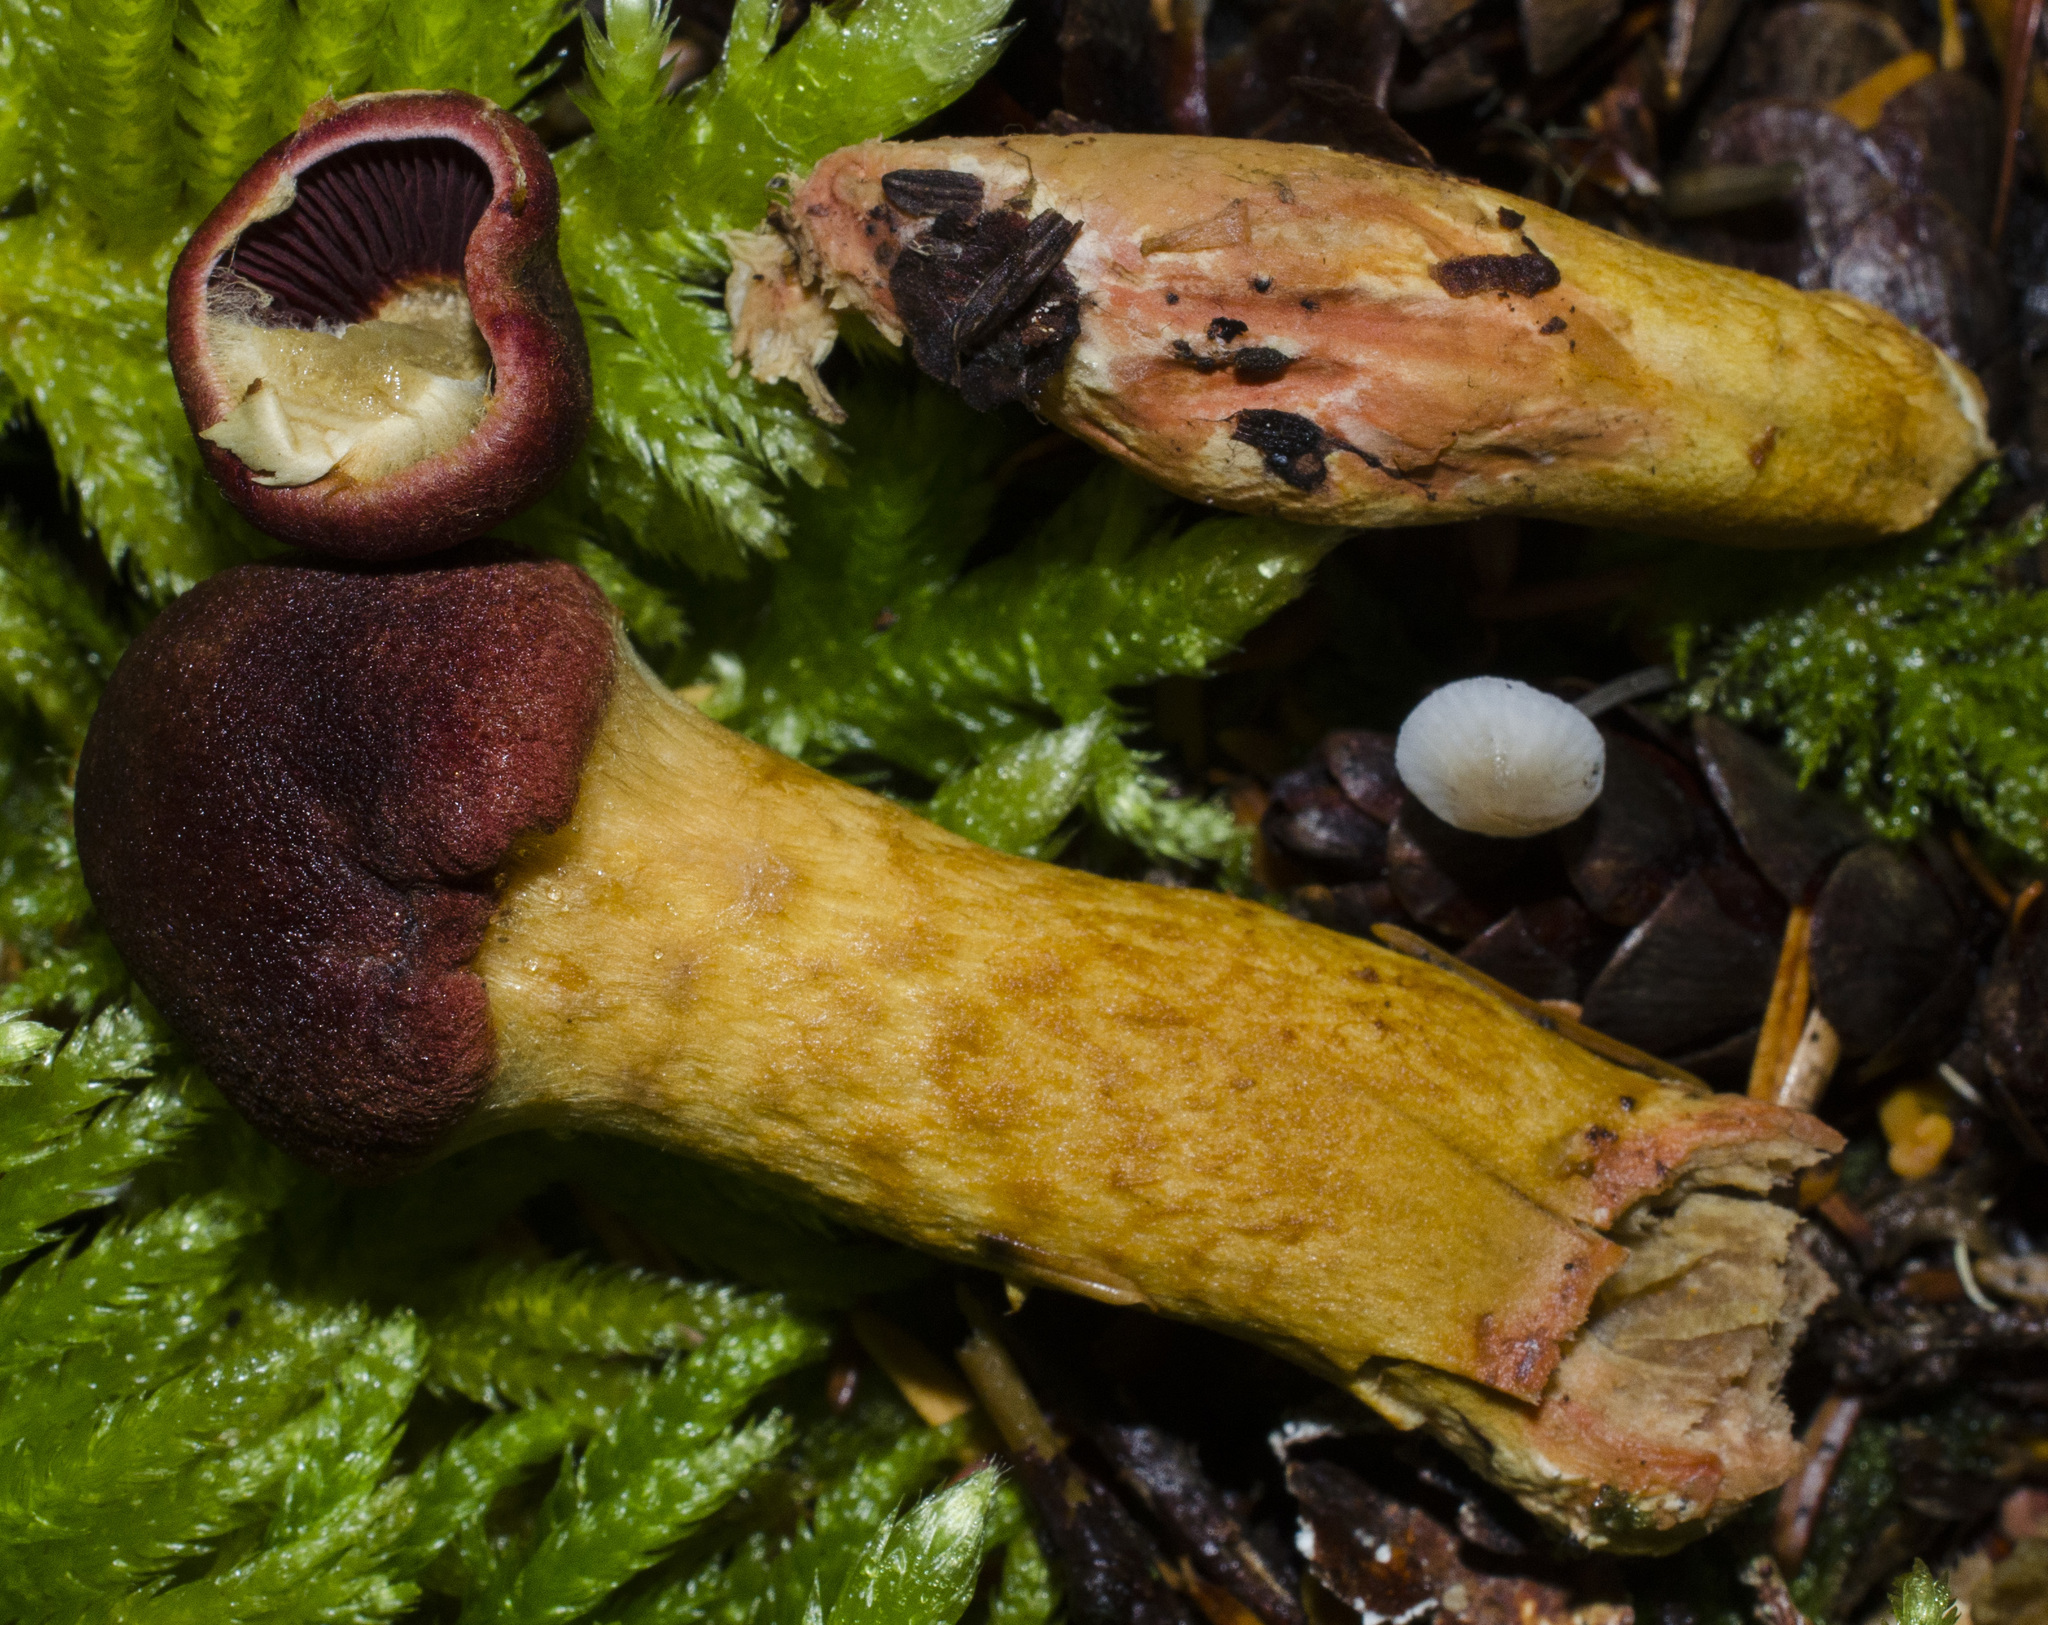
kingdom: Fungi
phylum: Basidiomycota
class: Agaricomycetes
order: Agaricales
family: Cortinariaceae
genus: Cortinarius
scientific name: Cortinarius smithii
